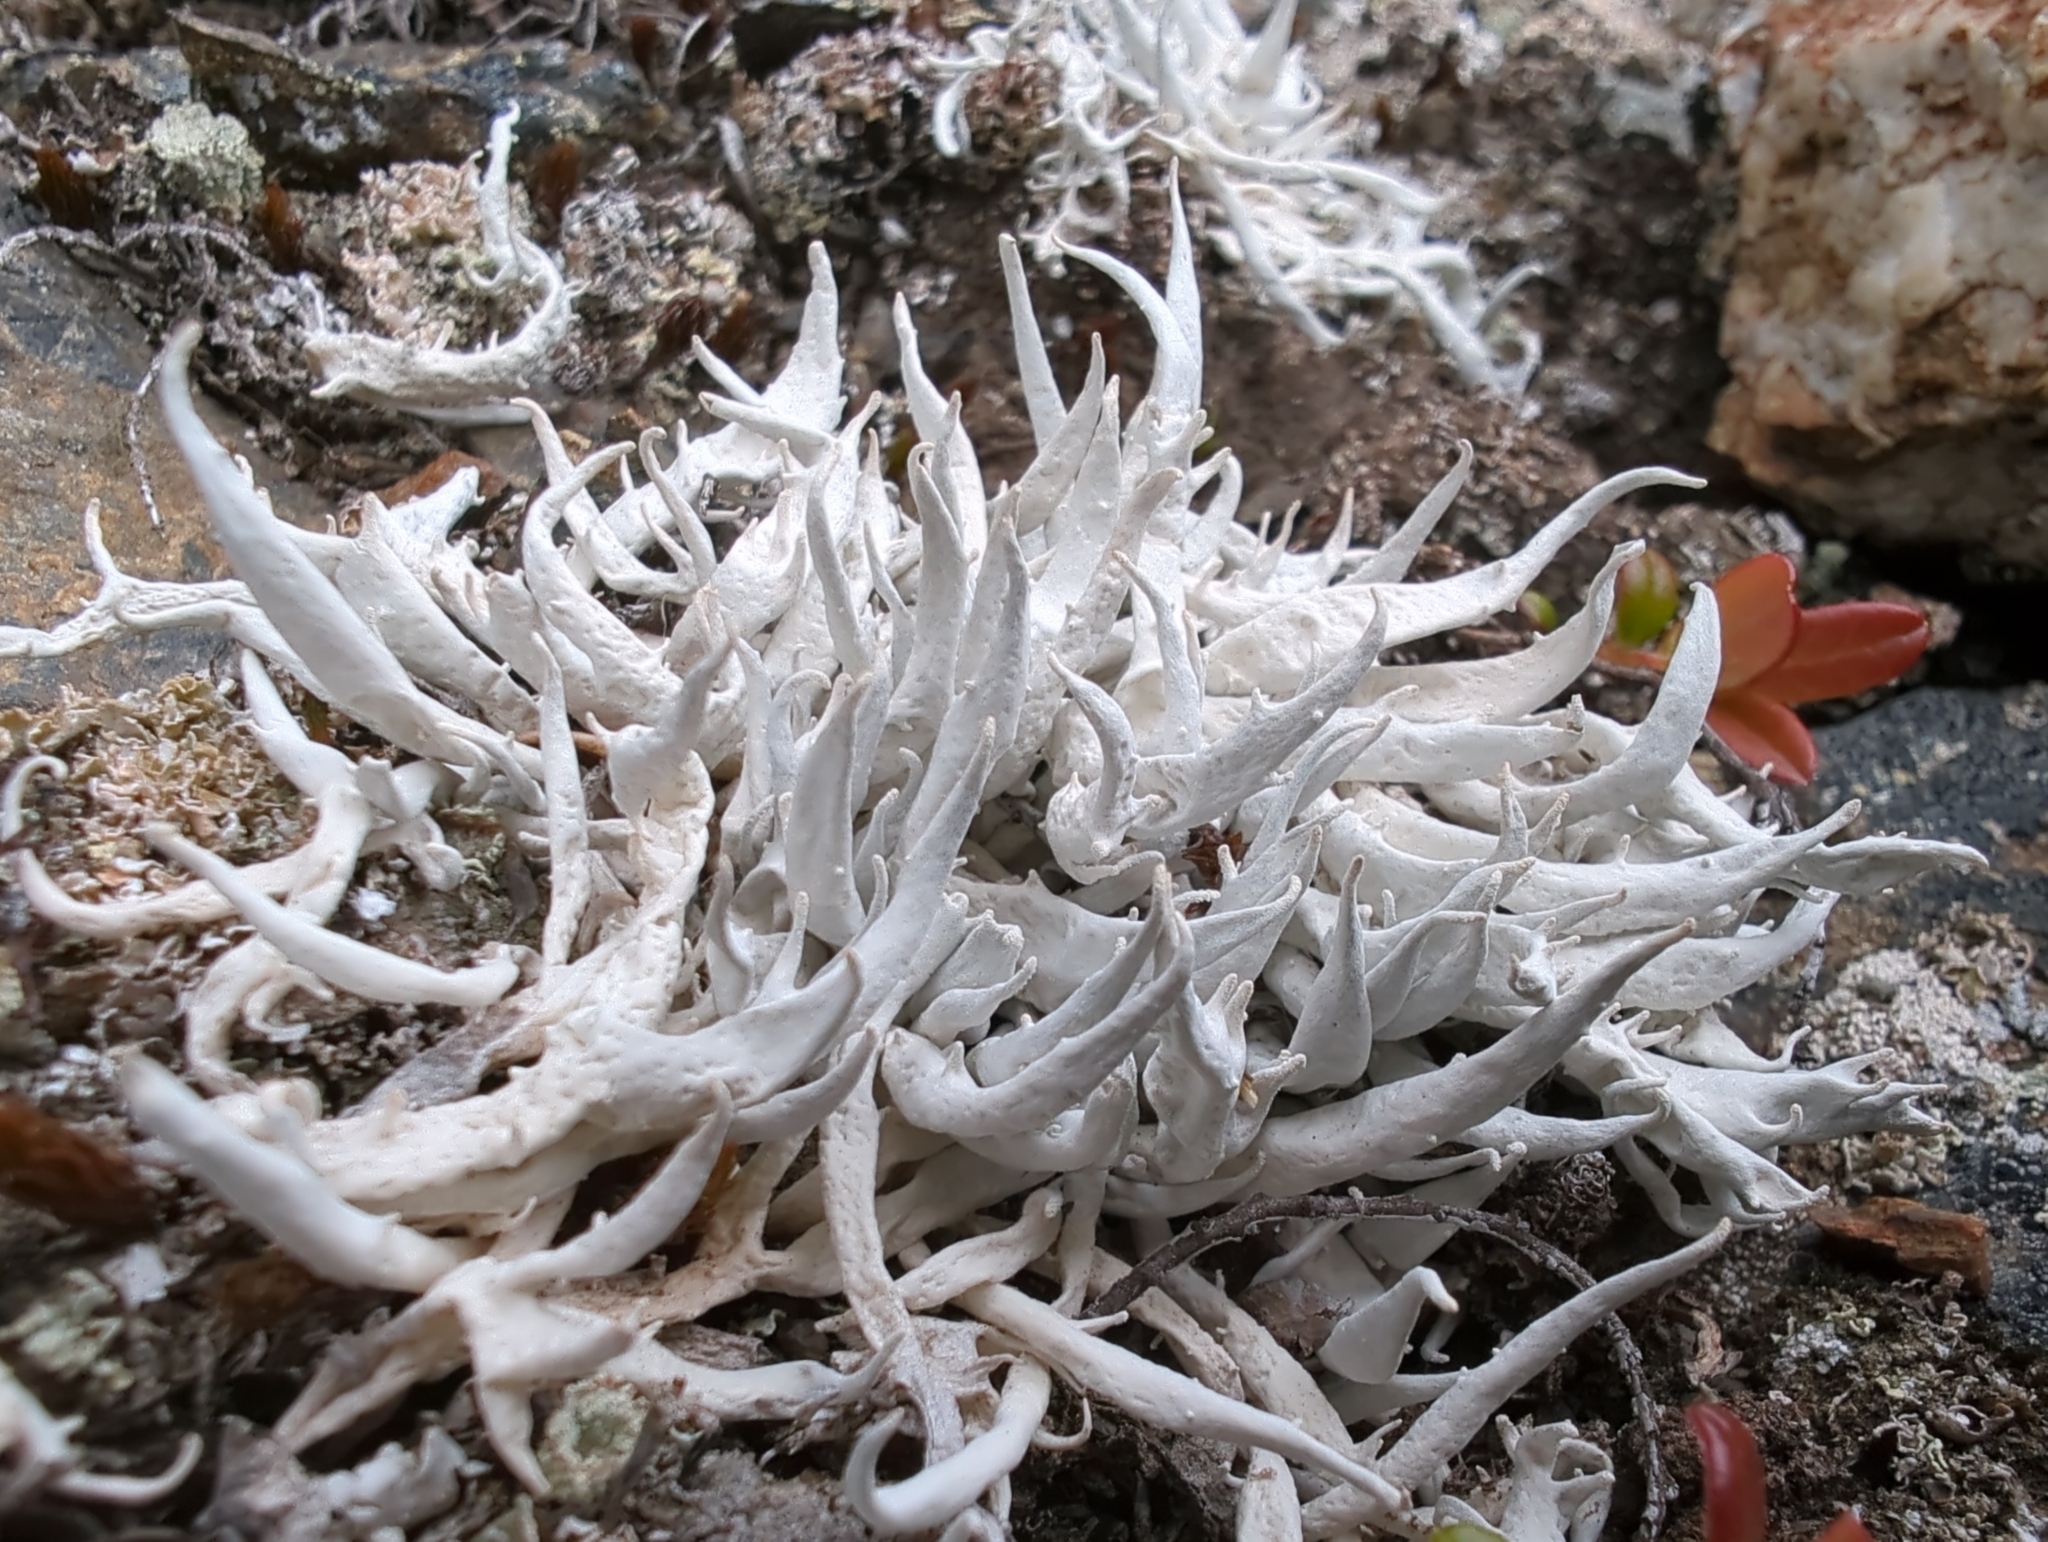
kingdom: Fungi
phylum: Ascomycota
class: Lecanoromycetes
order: Pertusariales
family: Icmadophilaceae
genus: Thamnolia
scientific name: Thamnolia vermicularis
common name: Whiteworm lichen
